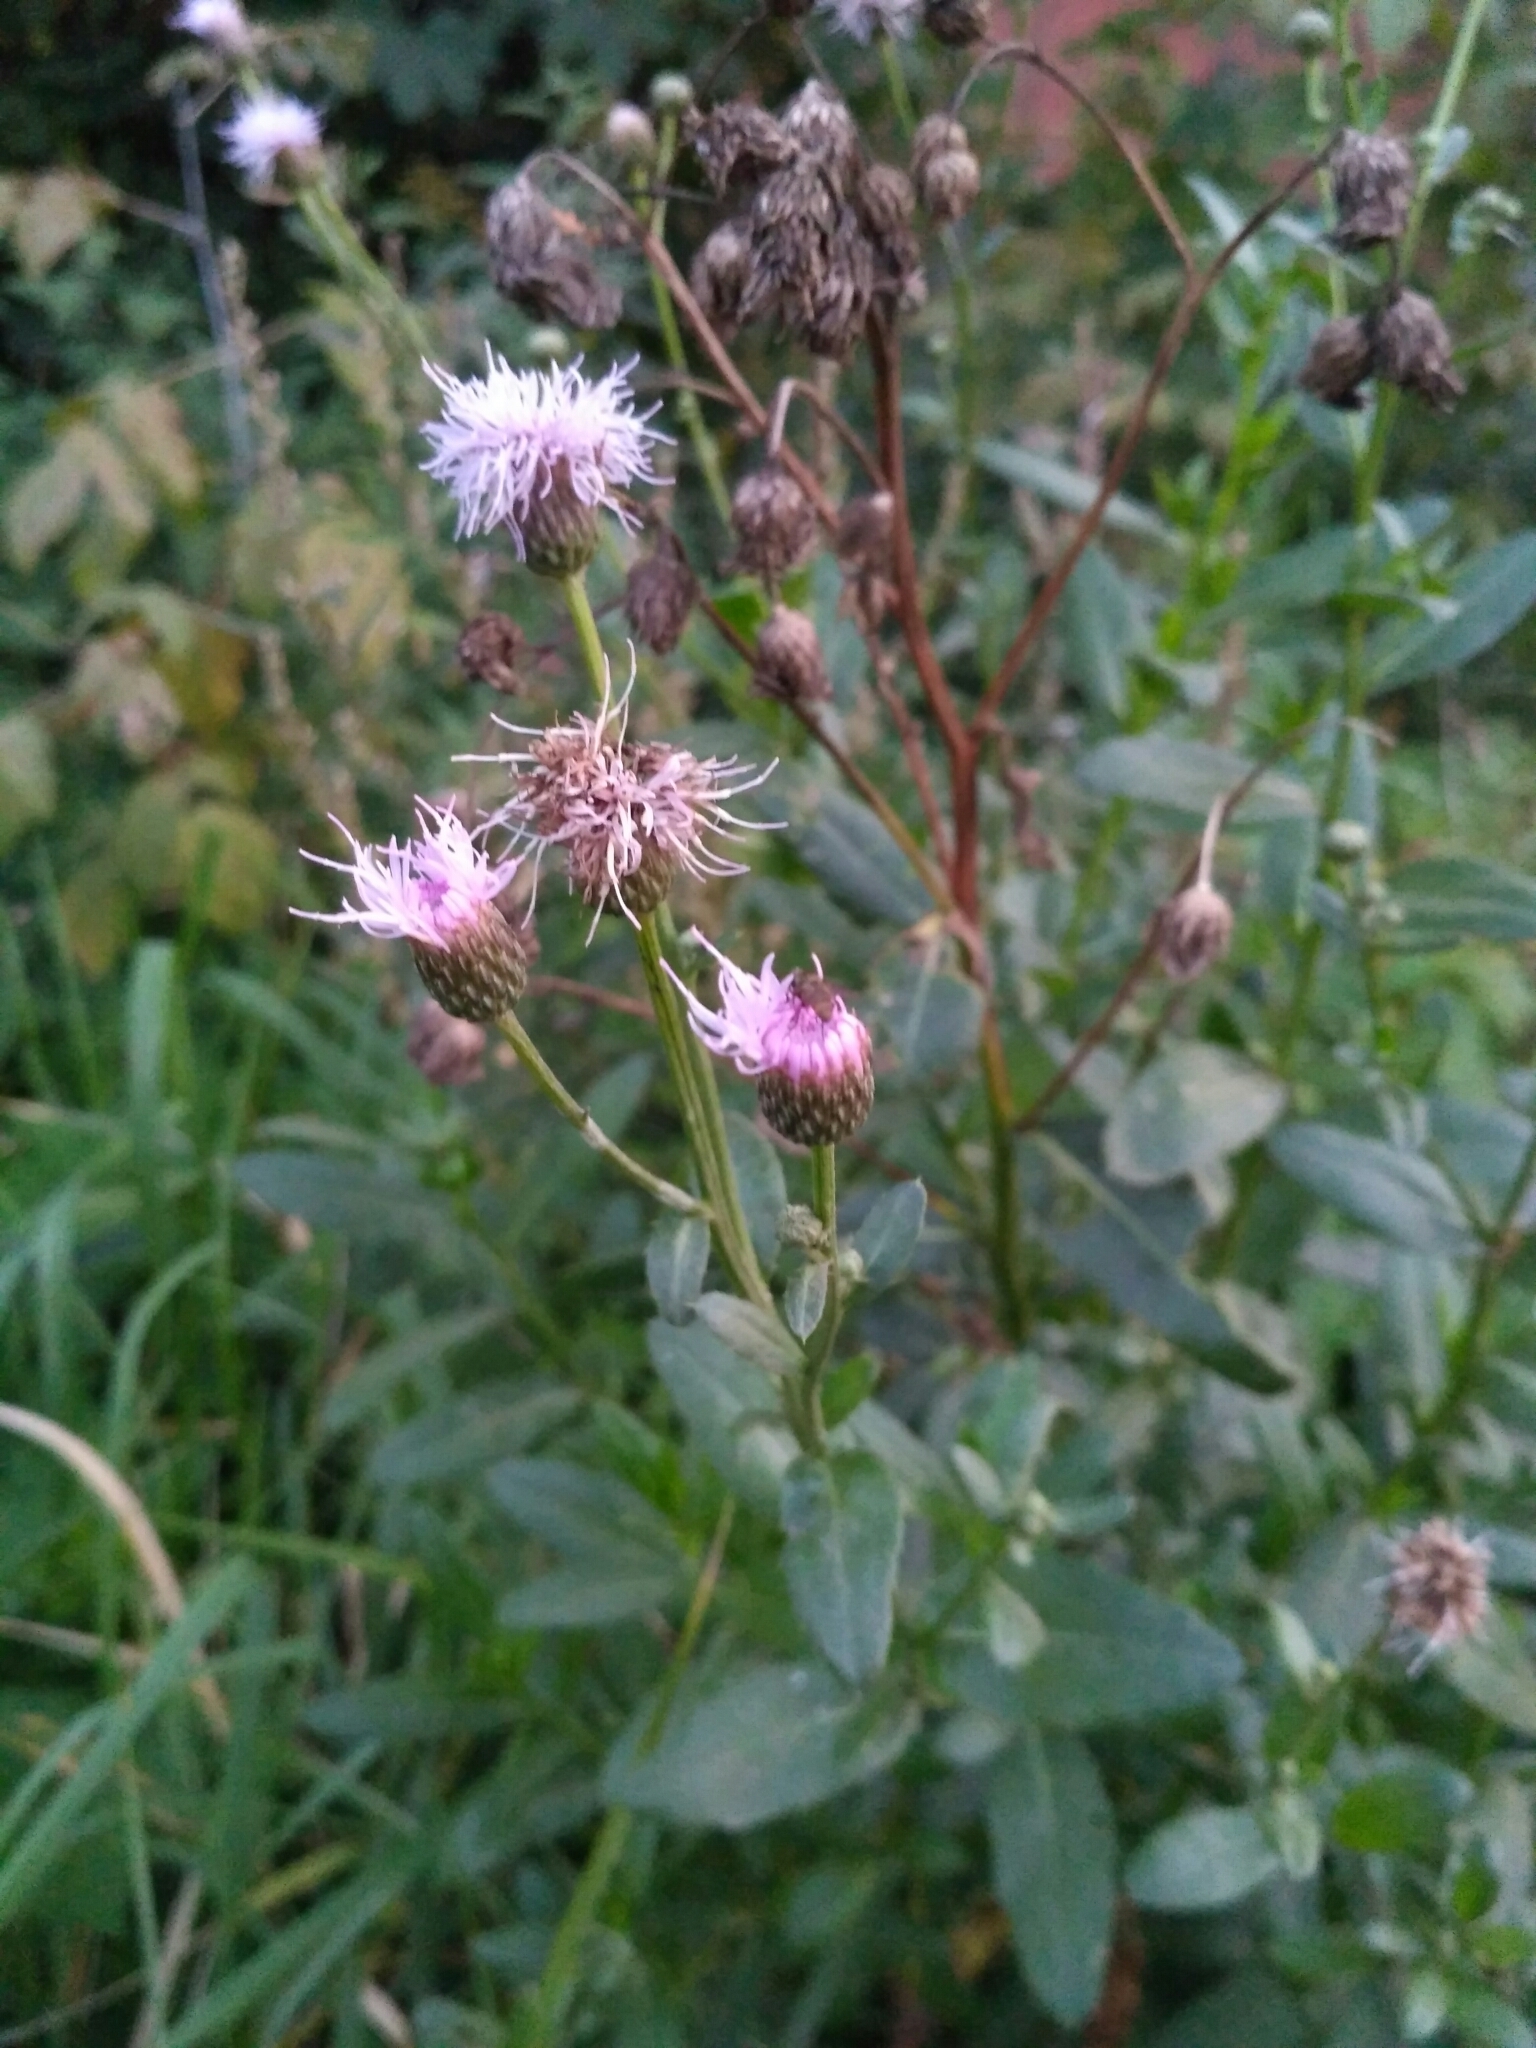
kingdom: Plantae
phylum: Tracheophyta
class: Magnoliopsida
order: Asterales
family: Asteraceae
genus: Cirsium
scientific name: Cirsium arvense
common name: Creeping thistle
